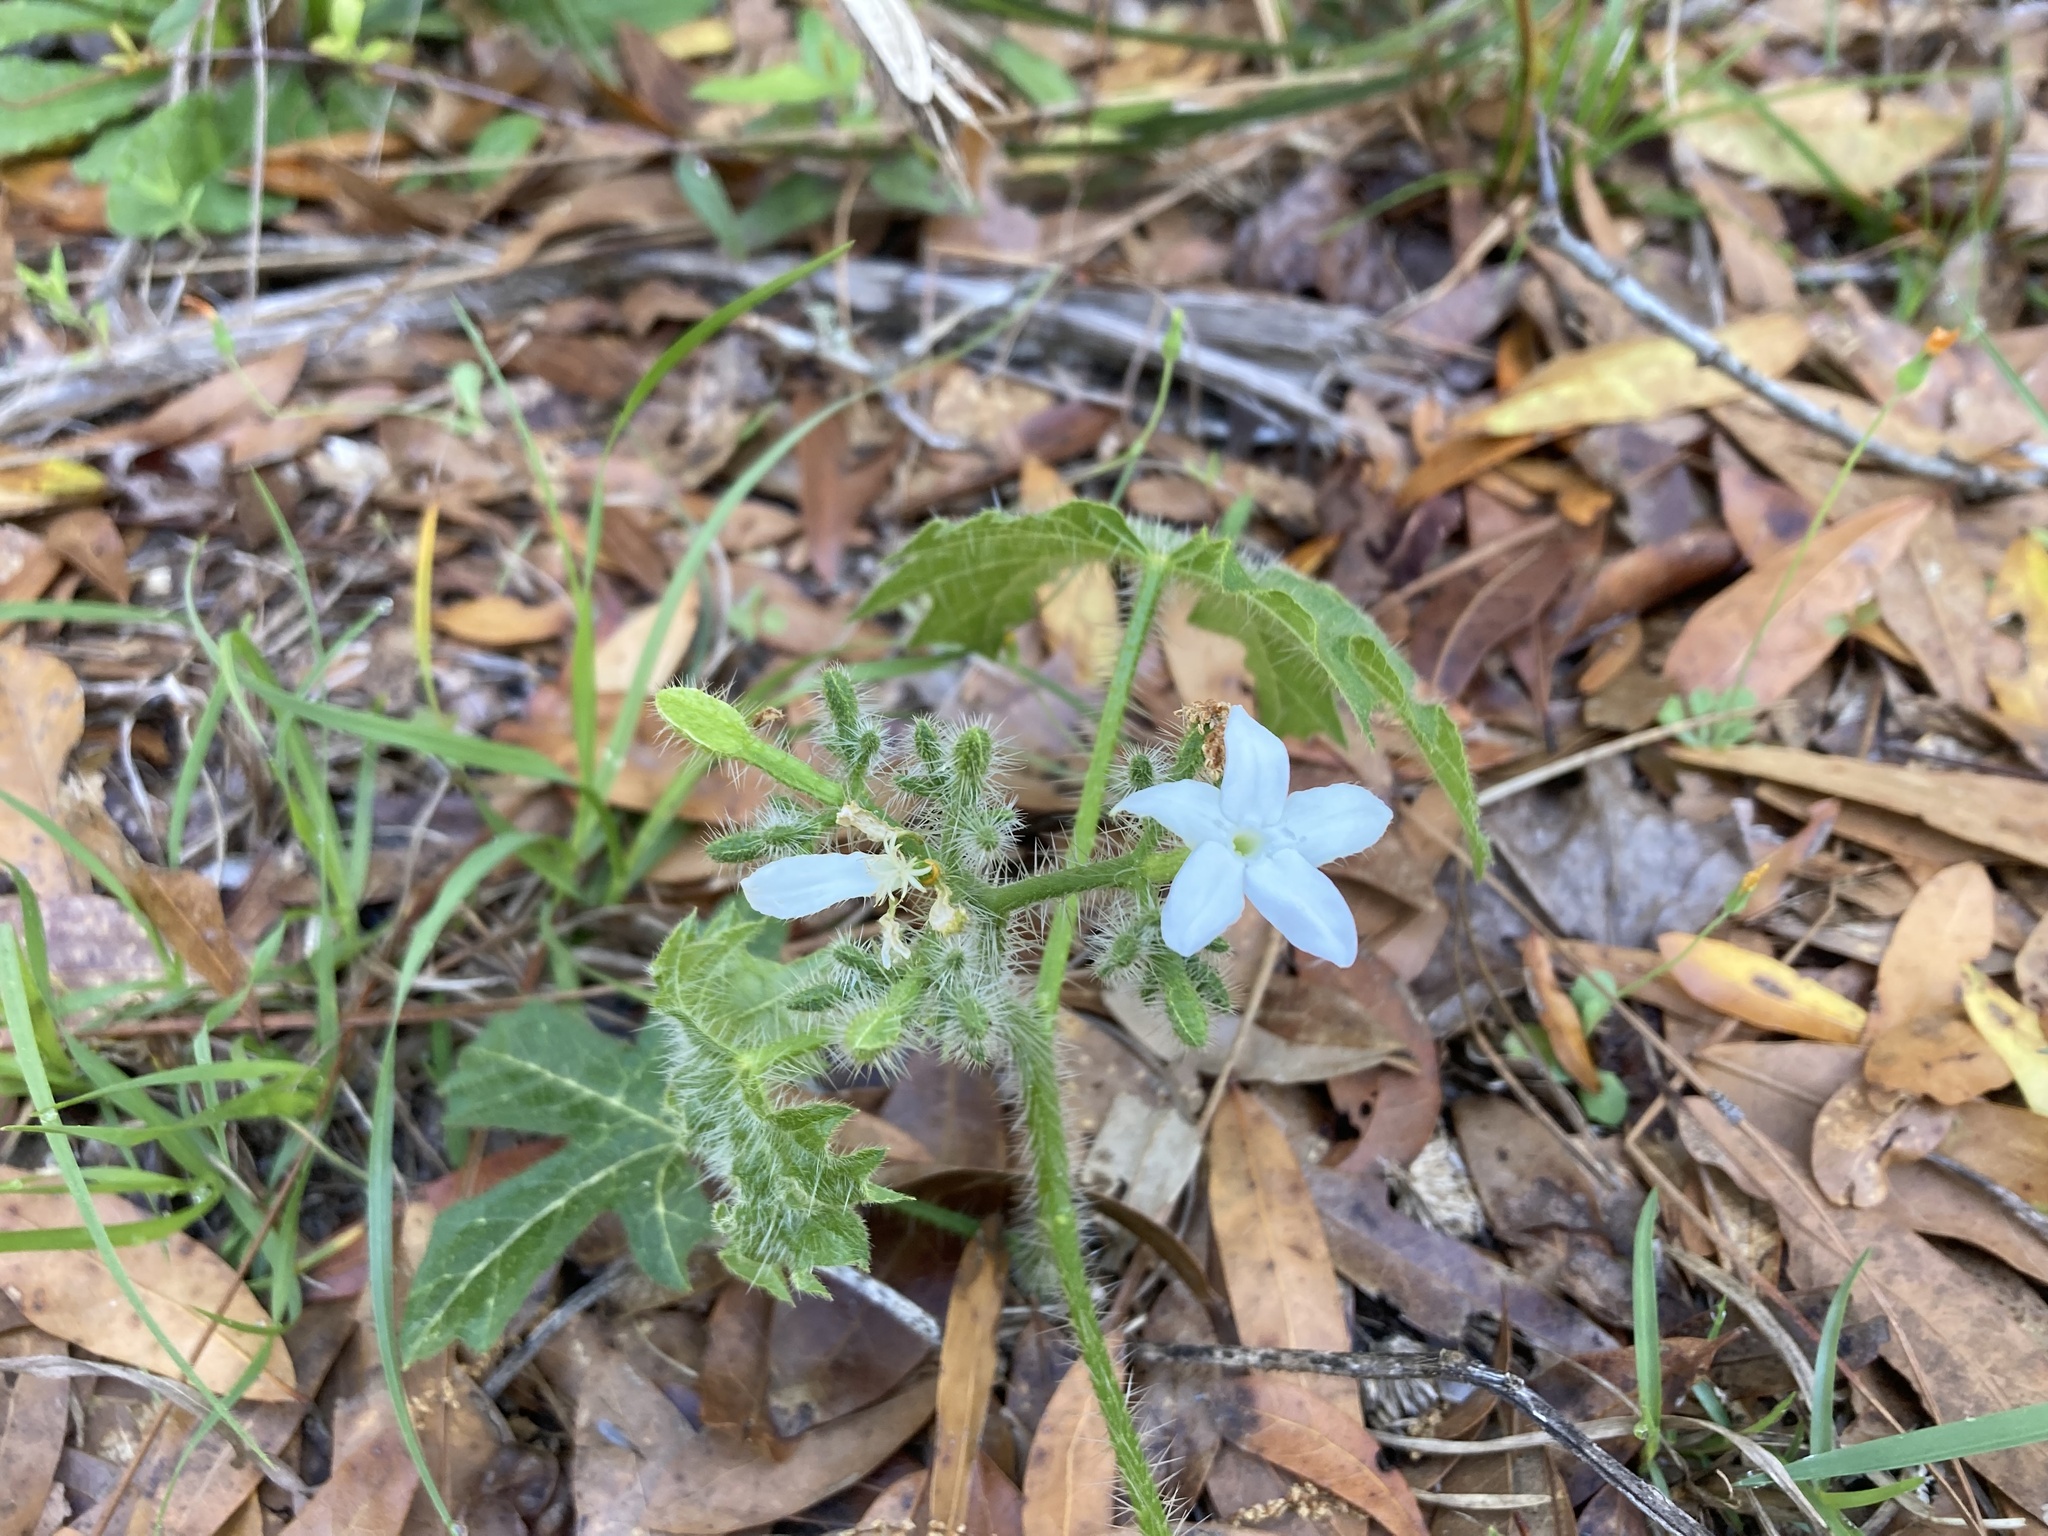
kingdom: Plantae
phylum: Tracheophyta
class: Magnoliopsida
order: Malpighiales
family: Euphorbiaceae
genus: Cnidoscolus
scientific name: Cnidoscolus stimulosus
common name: Bull-nettle
